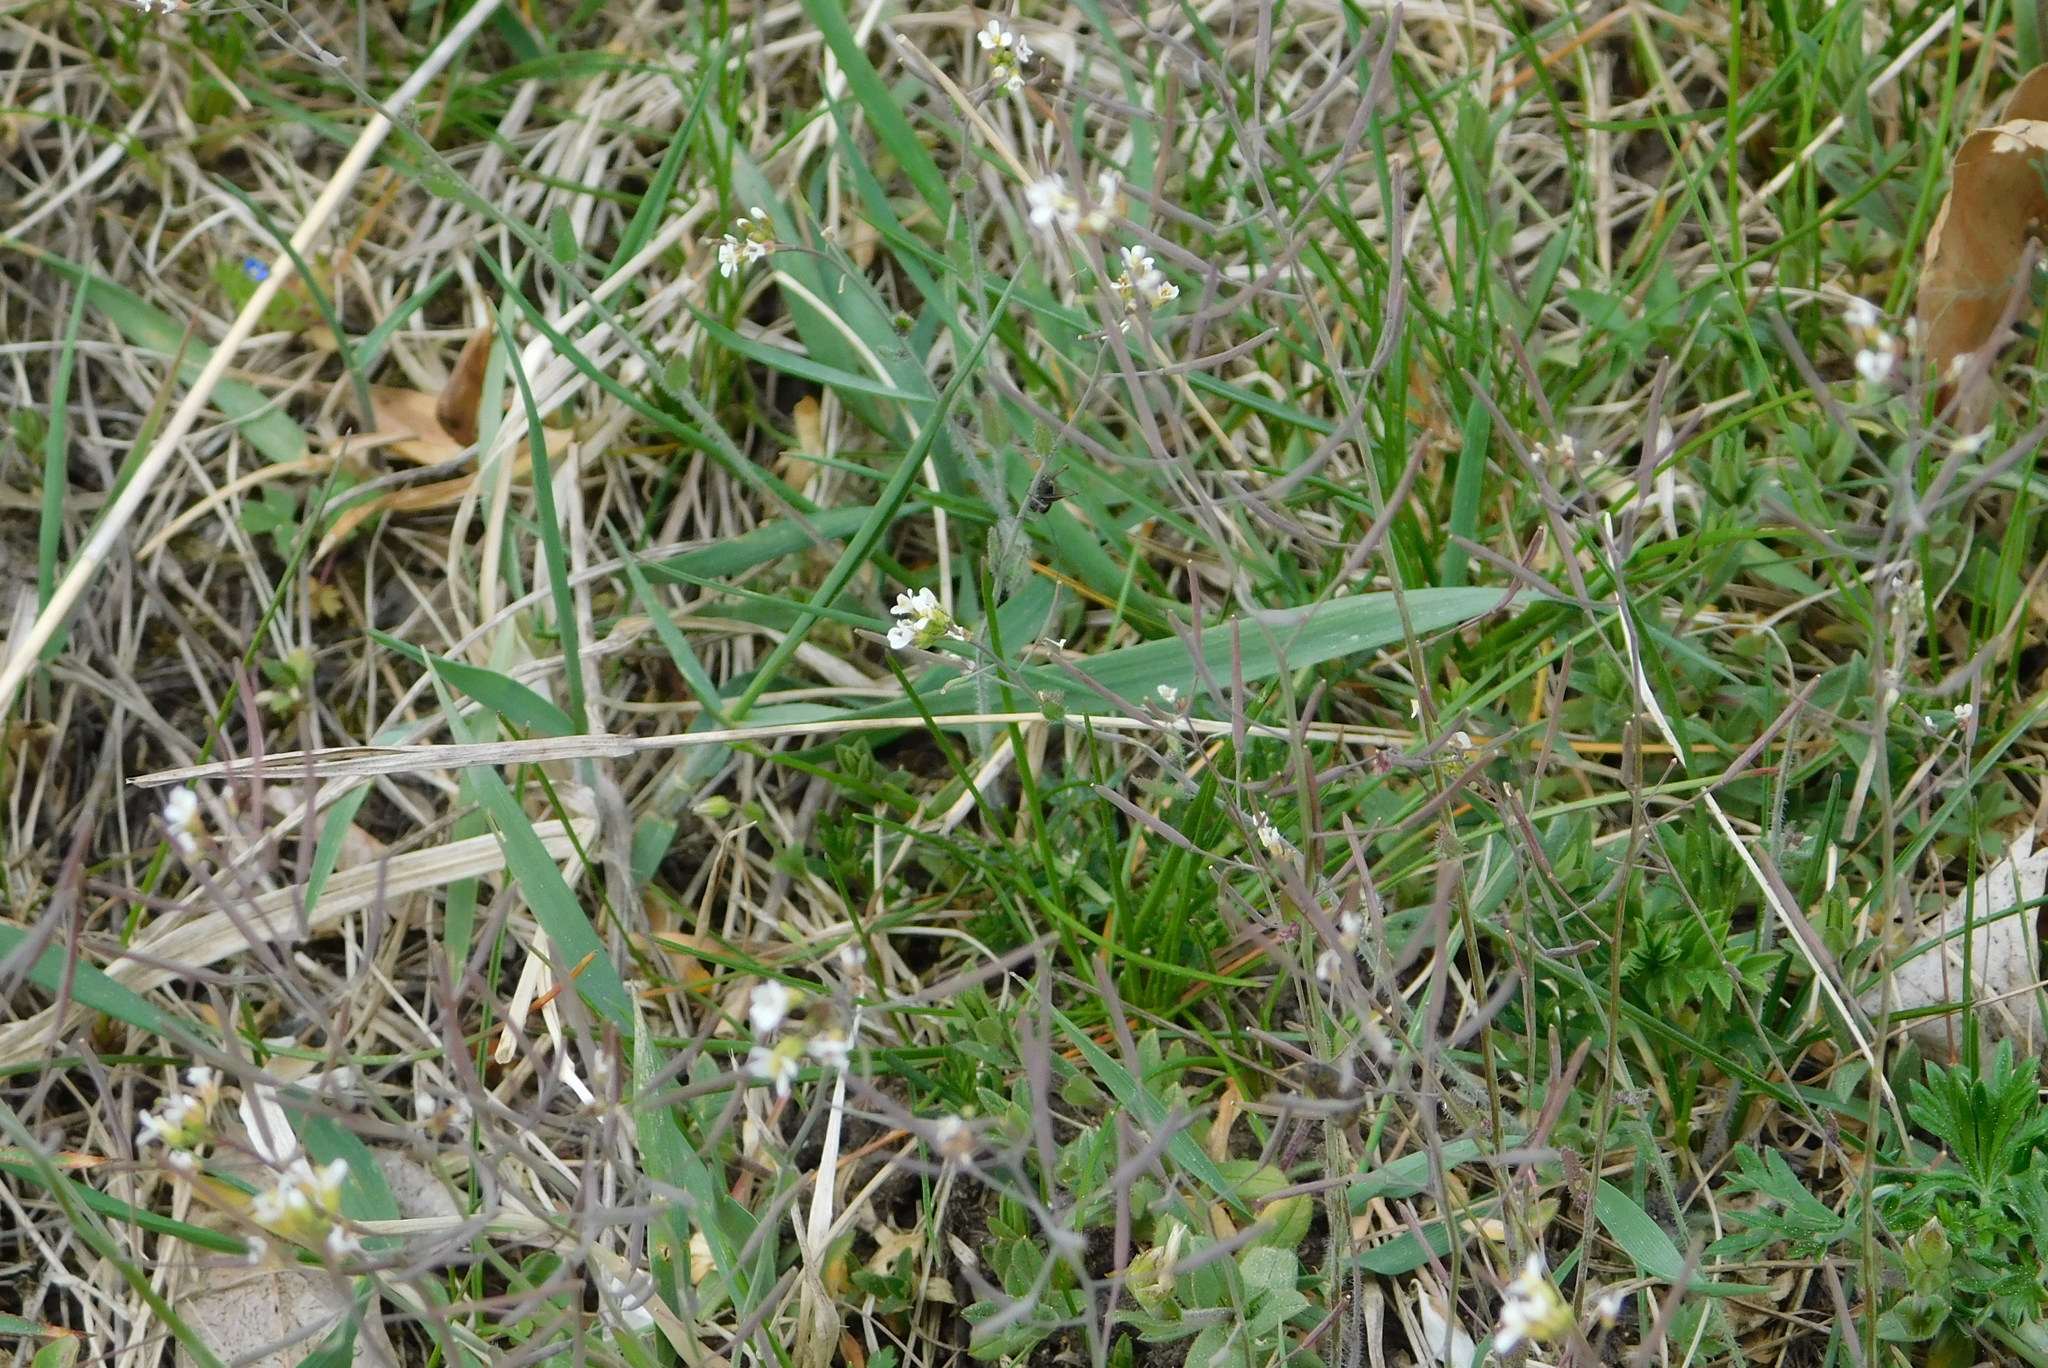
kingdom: Plantae
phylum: Tracheophyta
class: Magnoliopsida
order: Brassicales
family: Brassicaceae
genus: Arabidopsis
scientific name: Arabidopsis thaliana
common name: Thale cress
